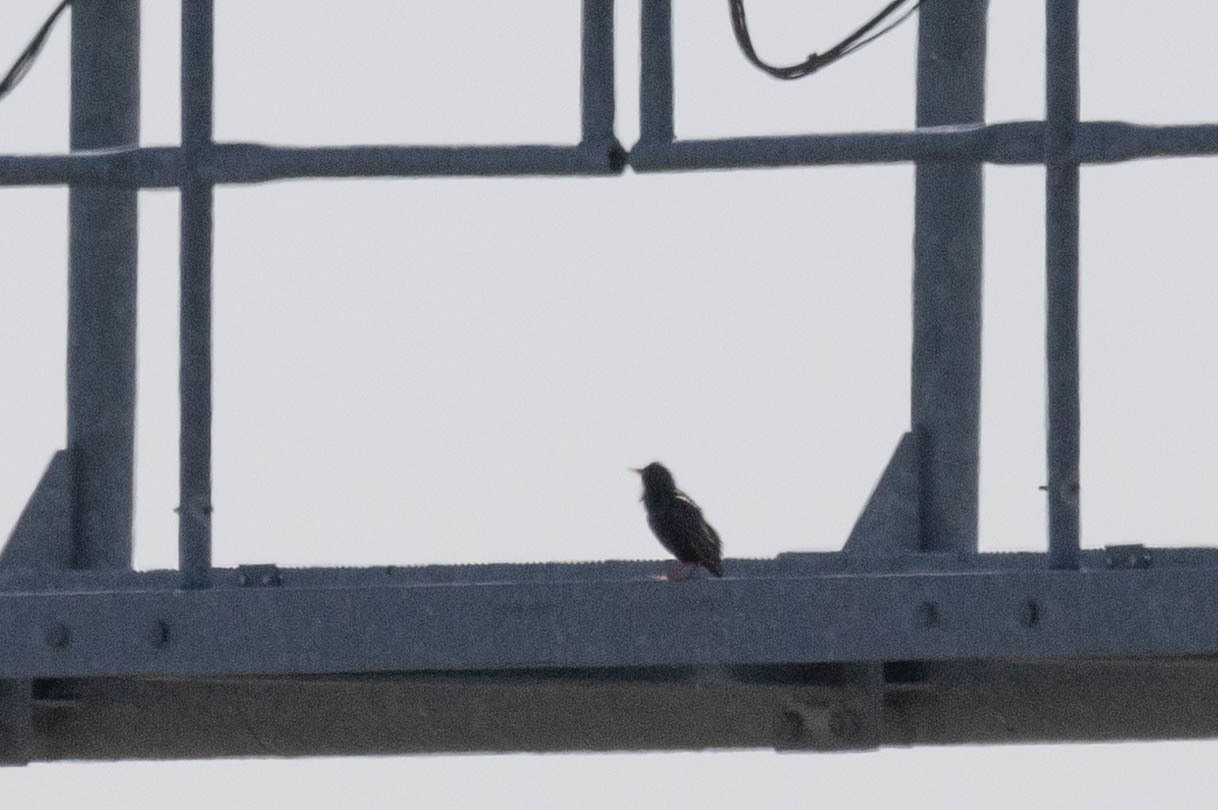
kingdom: Animalia
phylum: Chordata
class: Aves
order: Passeriformes
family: Sturnidae
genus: Sturnus
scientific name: Sturnus vulgaris
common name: Common starling
